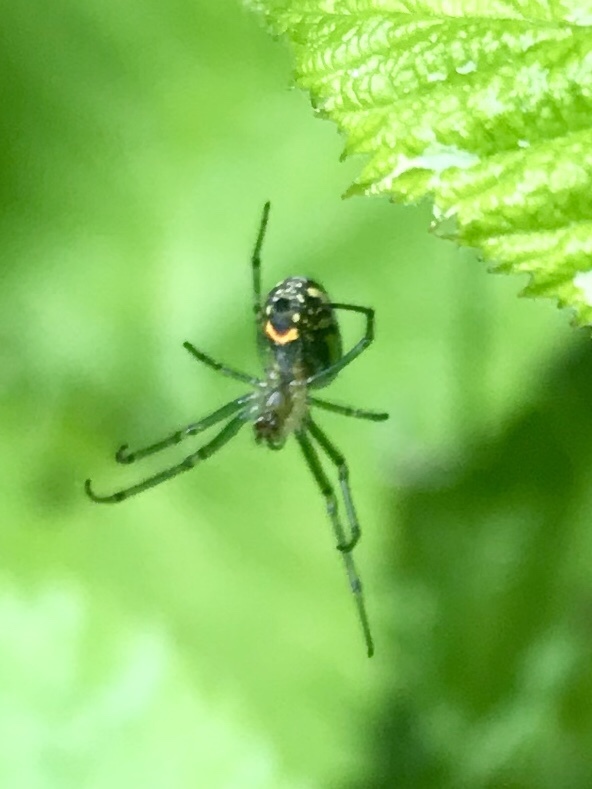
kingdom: Animalia
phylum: Arthropoda
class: Arachnida
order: Araneae
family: Tetragnathidae
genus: Leucauge
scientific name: Leucauge venusta
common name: Longjawed orb weavers
